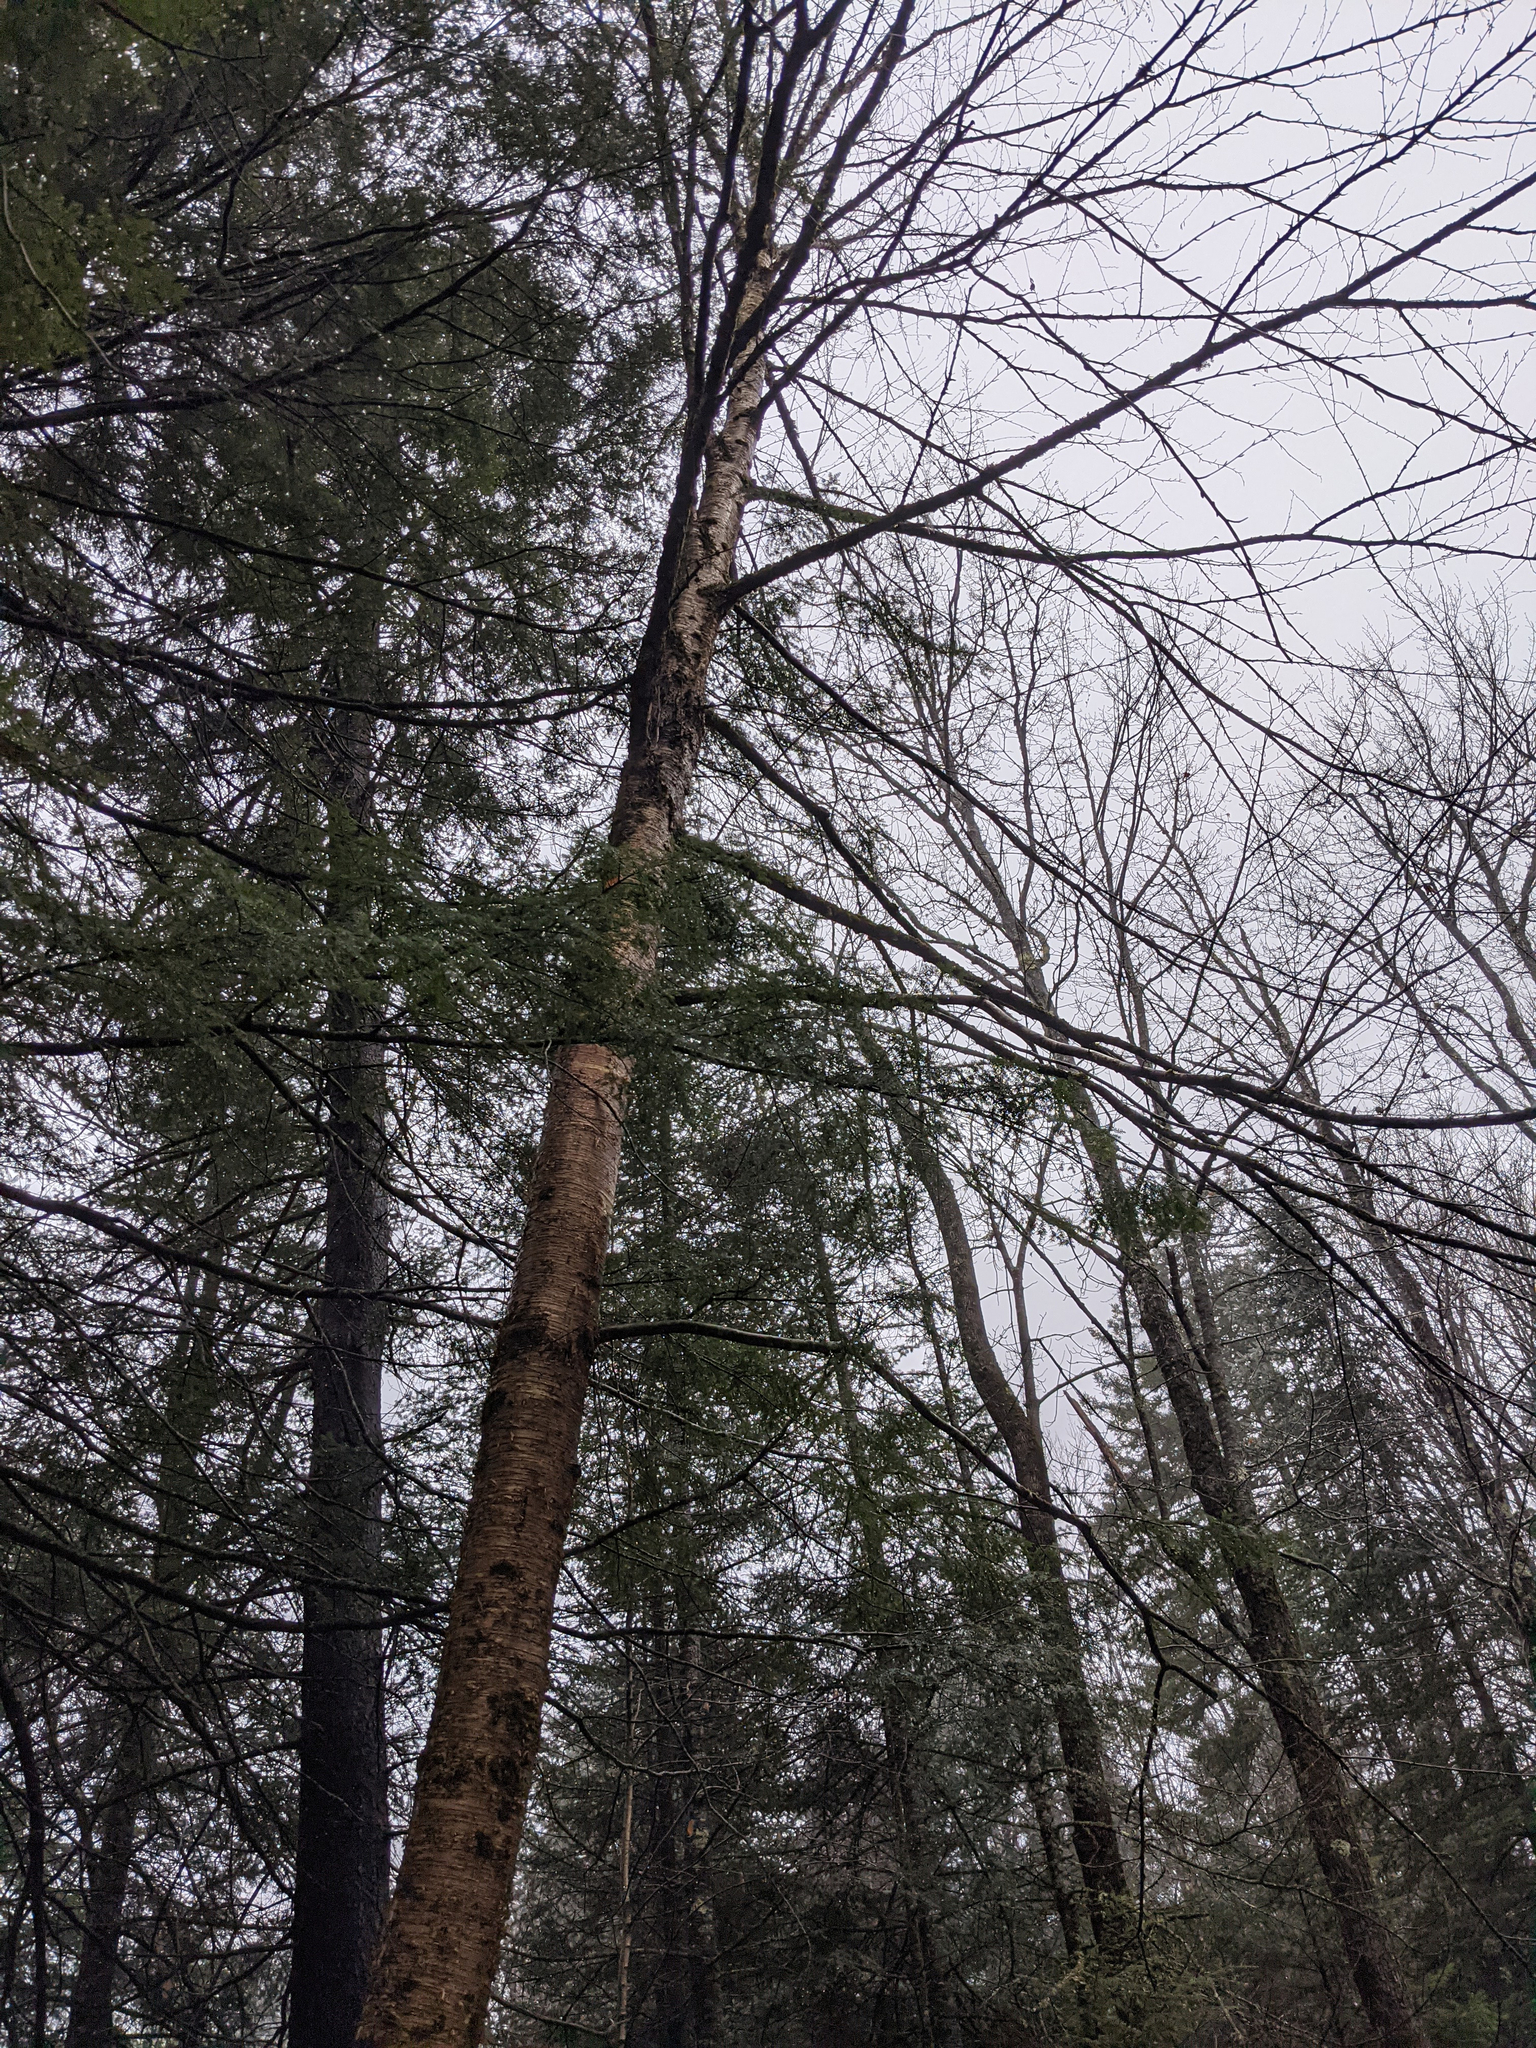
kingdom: Plantae
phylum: Tracheophyta
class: Magnoliopsida
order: Fagales
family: Betulaceae
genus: Betula
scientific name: Betula alleghaniensis
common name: Yellow birch
